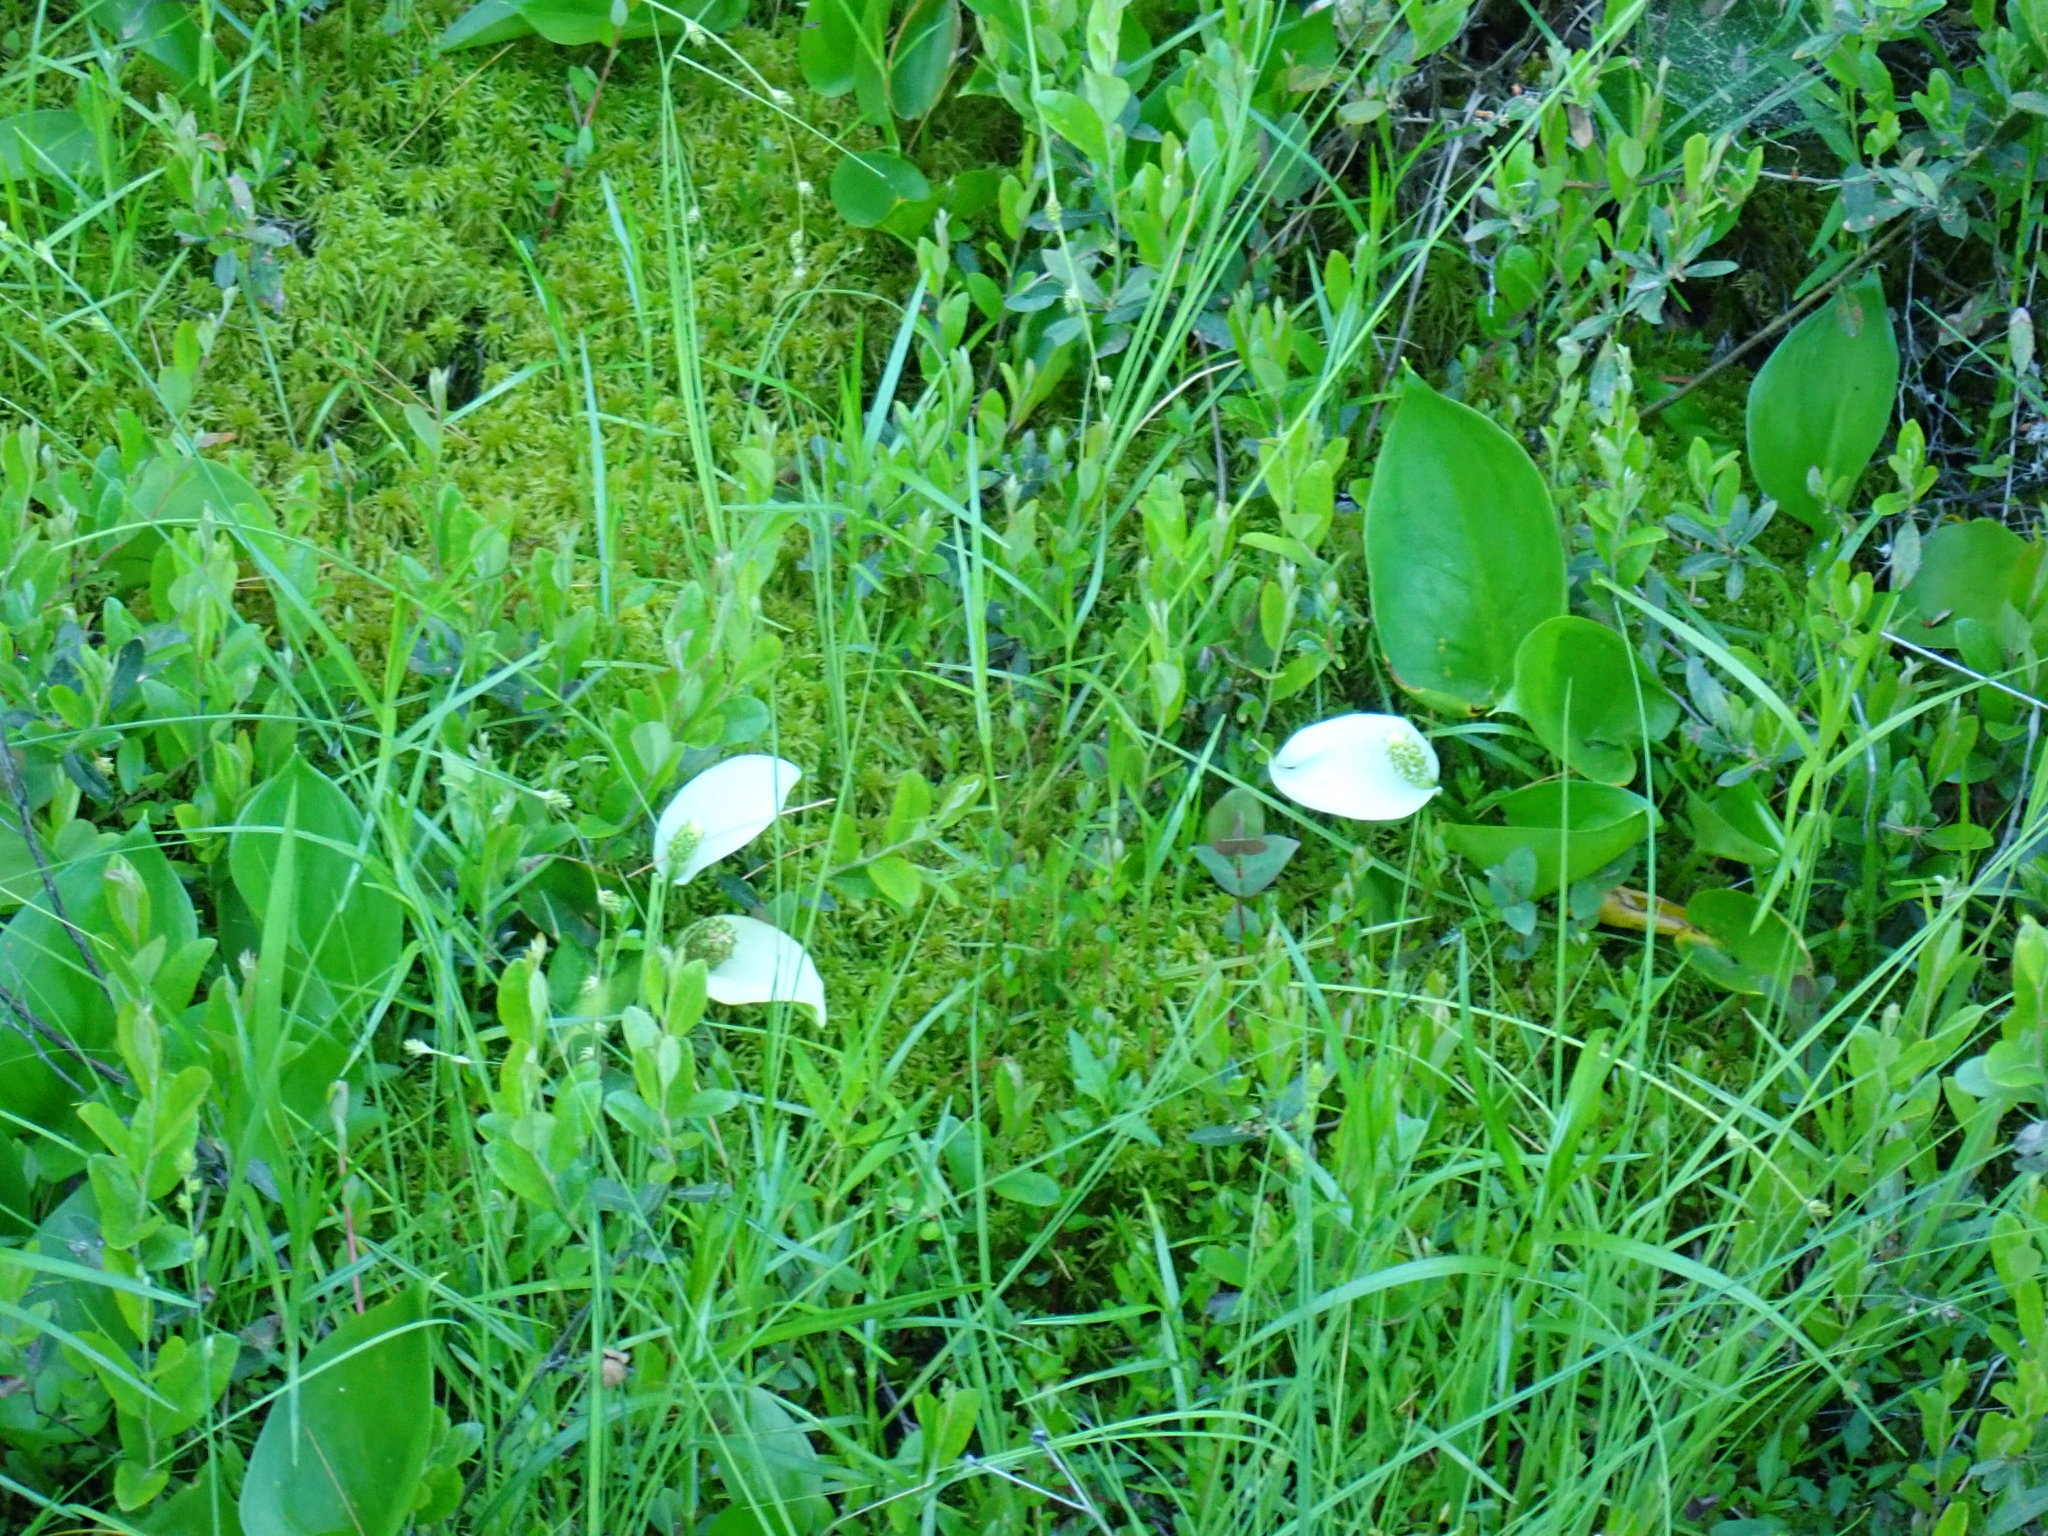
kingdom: Plantae
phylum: Tracheophyta
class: Liliopsida
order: Alismatales
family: Araceae
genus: Calla
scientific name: Calla palustris
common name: Bog arum
